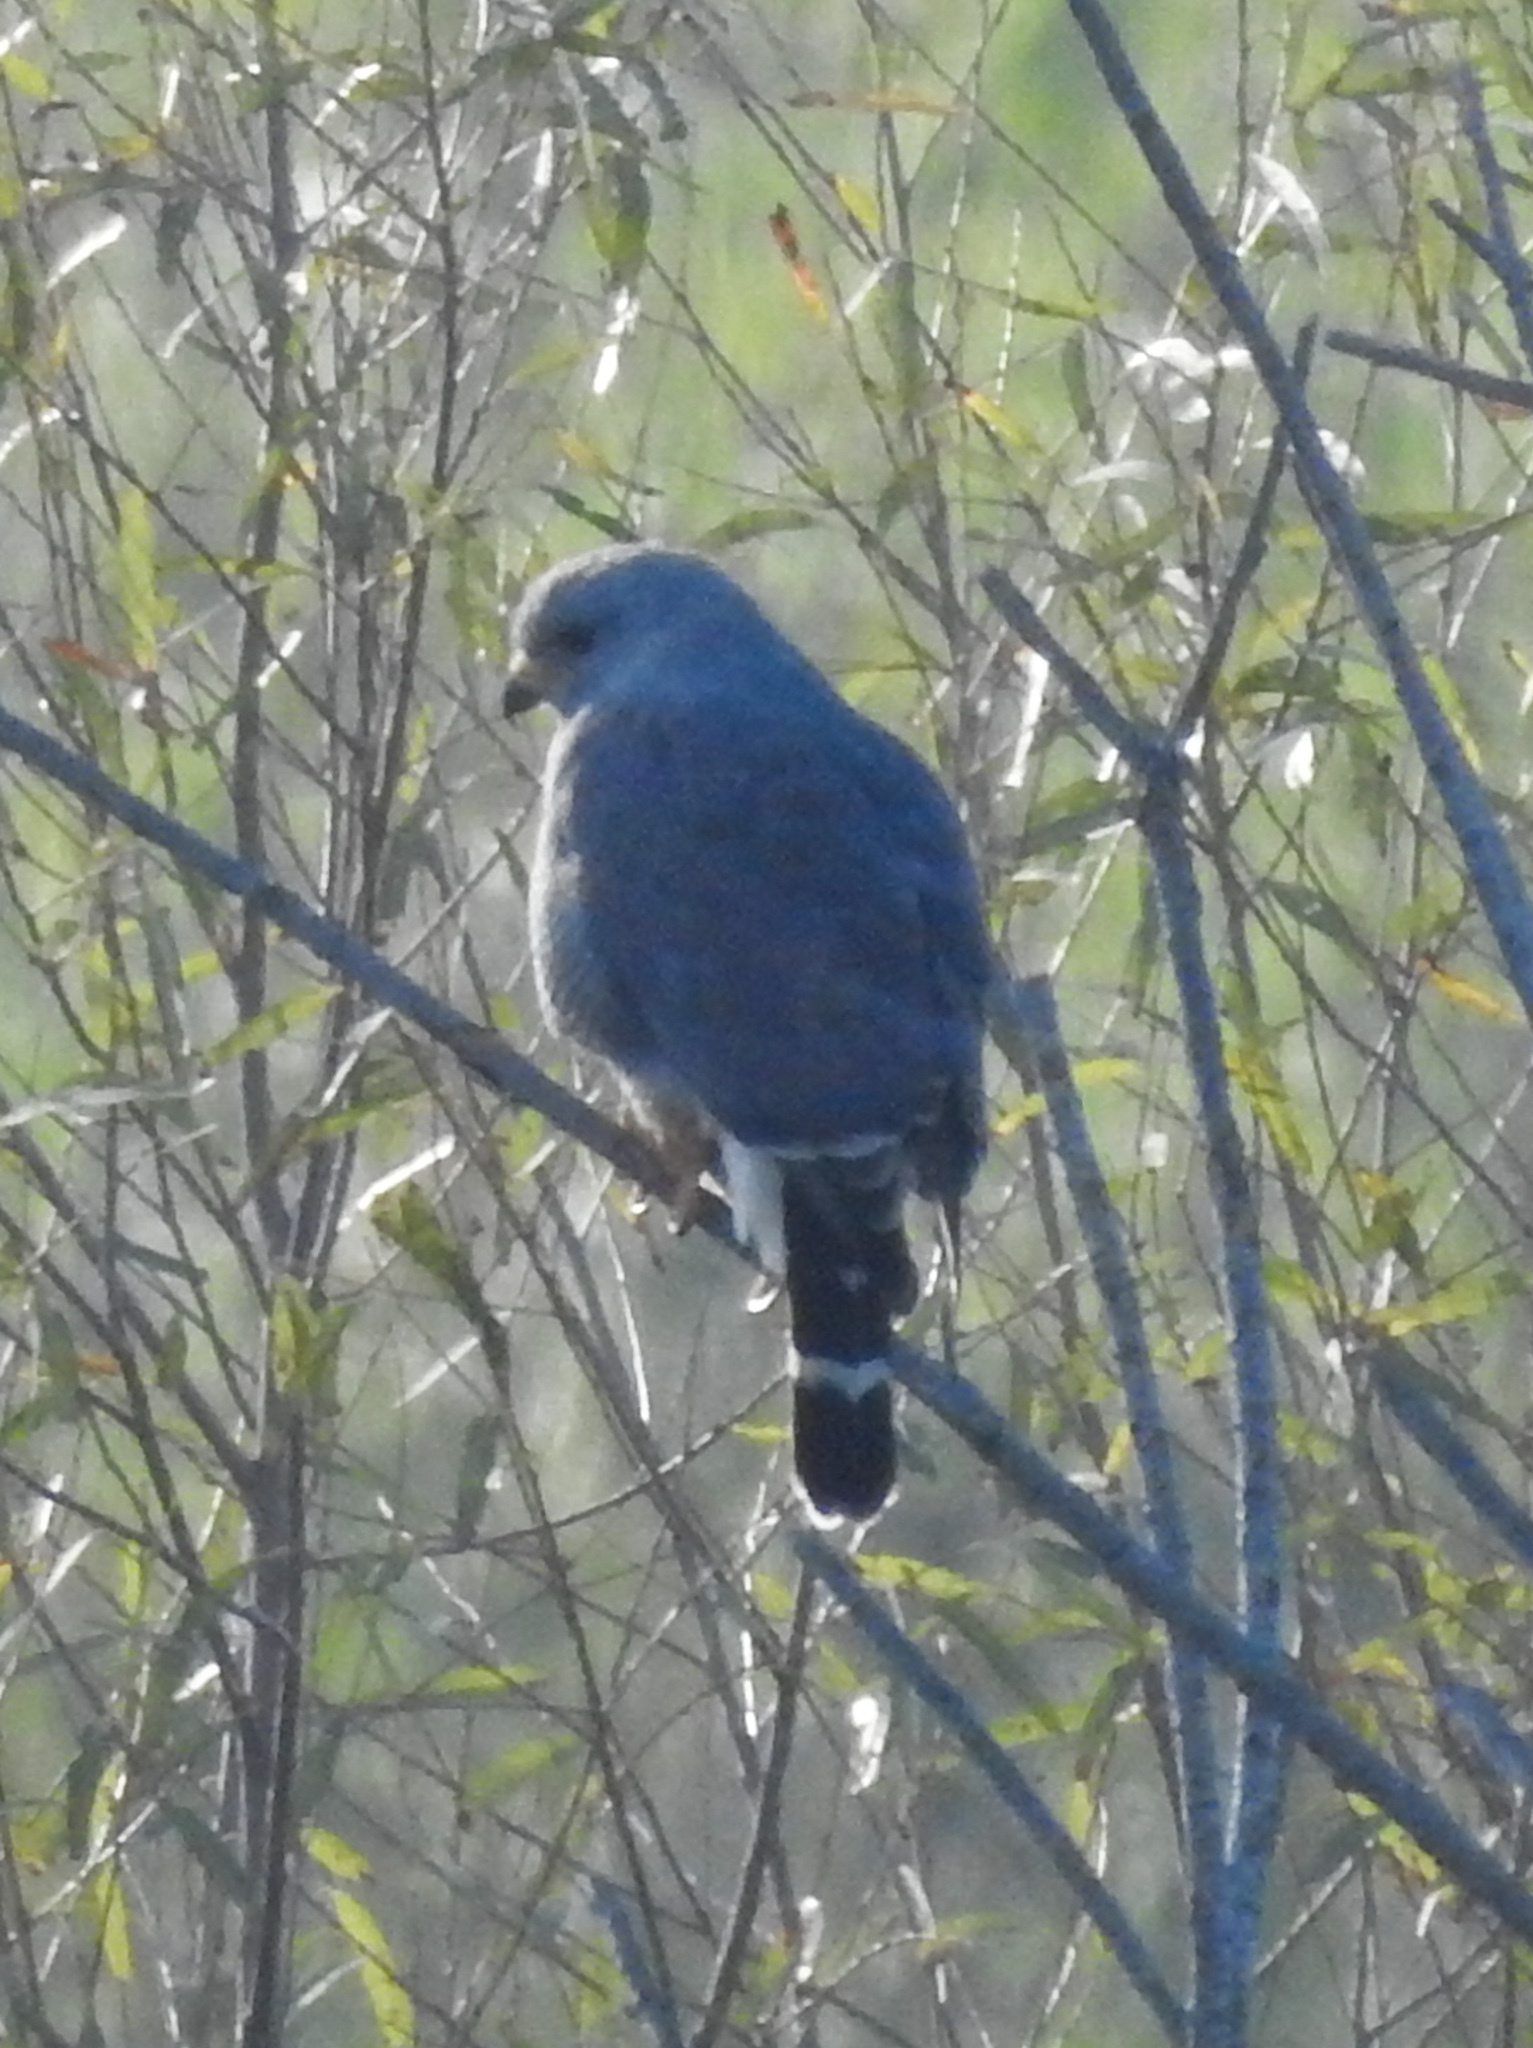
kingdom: Animalia
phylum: Chordata
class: Aves
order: Accipitriformes
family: Accipitridae
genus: Buteo
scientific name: Buteo nitidus
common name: Grey-lined hawk
